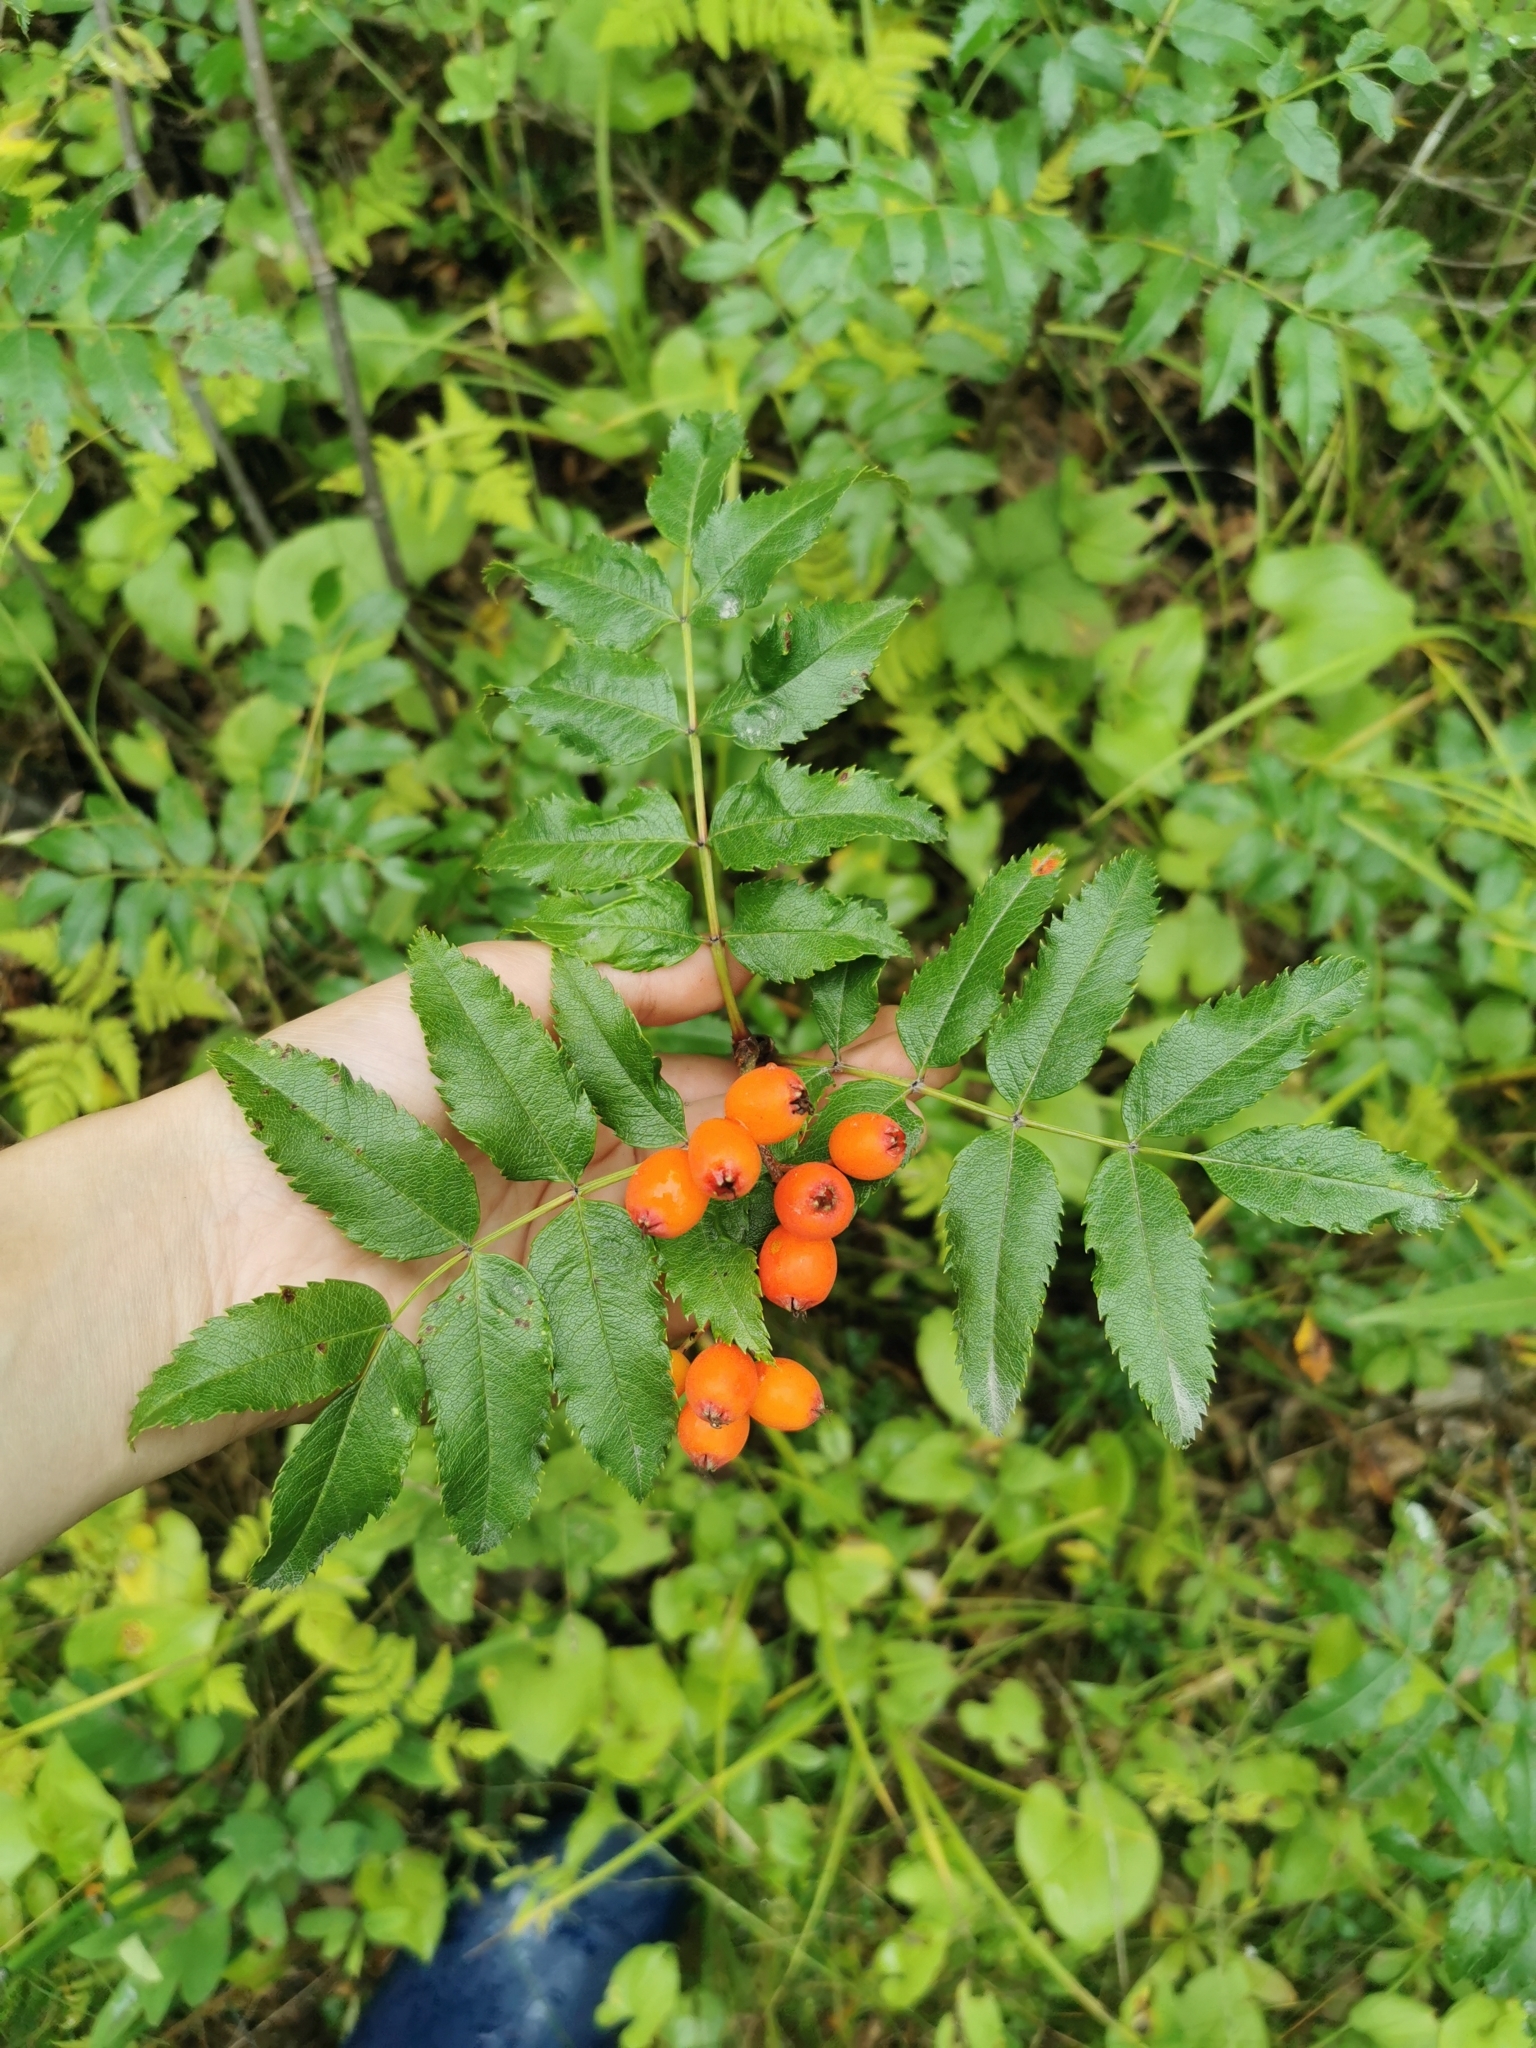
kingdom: Plantae
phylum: Tracheophyta
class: Magnoliopsida
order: Rosales
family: Rosaceae
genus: Sorbus
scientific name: Sorbus sambucifolia
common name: Siberian mountain-ash
